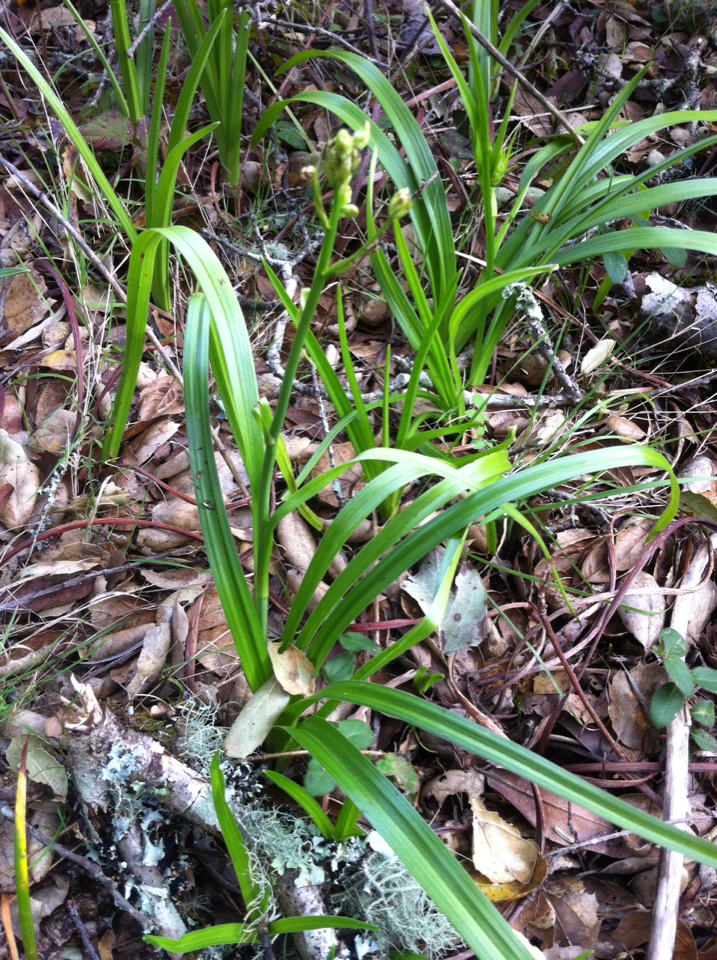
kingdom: Plantae
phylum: Tracheophyta
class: Liliopsida
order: Liliales
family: Melanthiaceae
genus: Toxicoscordion
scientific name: Toxicoscordion fremontii
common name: Fremont's death camas
